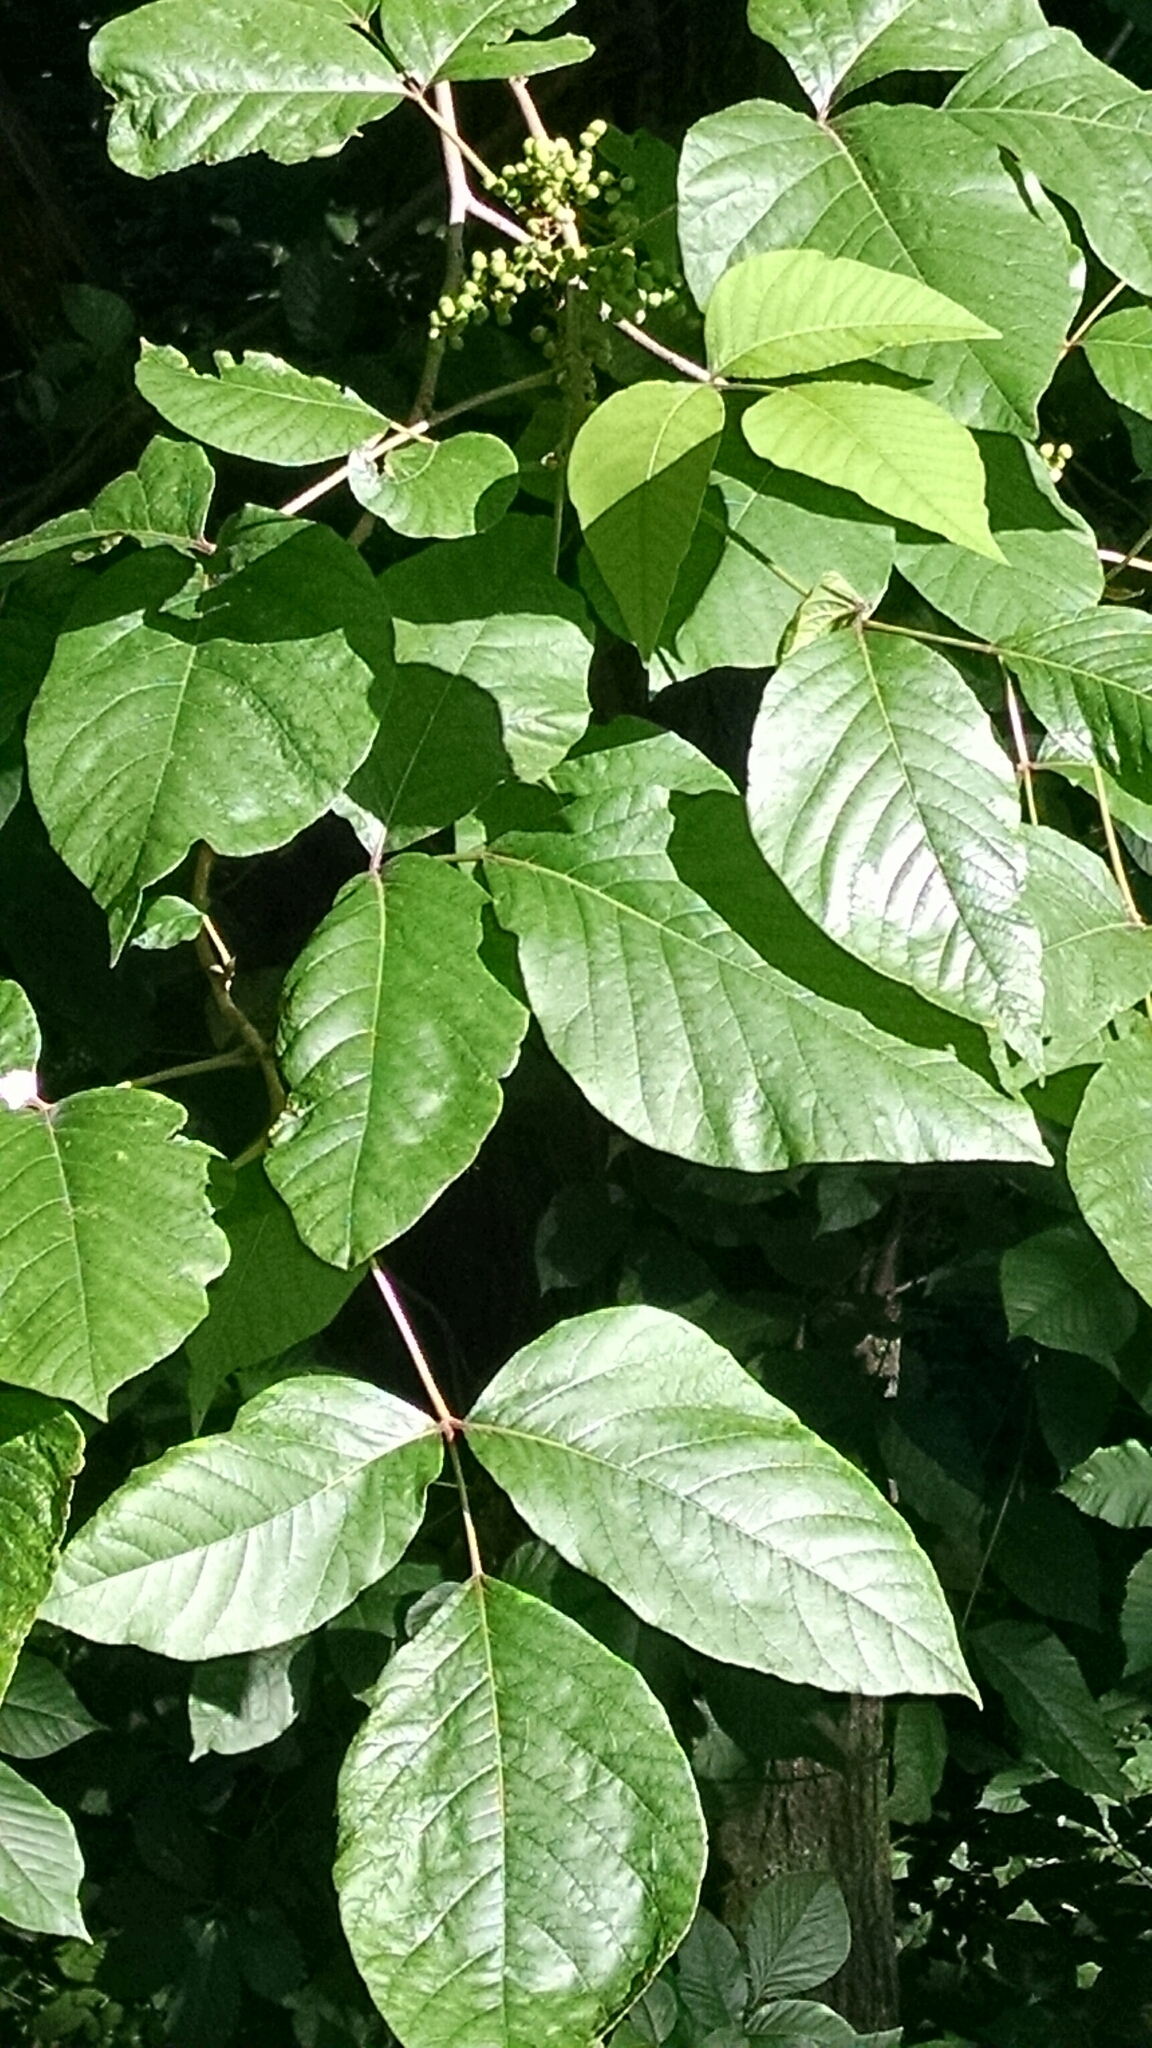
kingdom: Plantae
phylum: Tracheophyta
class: Magnoliopsida
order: Sapindales
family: Anacardiaceae
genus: Toxicodendron
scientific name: Toxicodendron radicans
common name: Poison ivy
